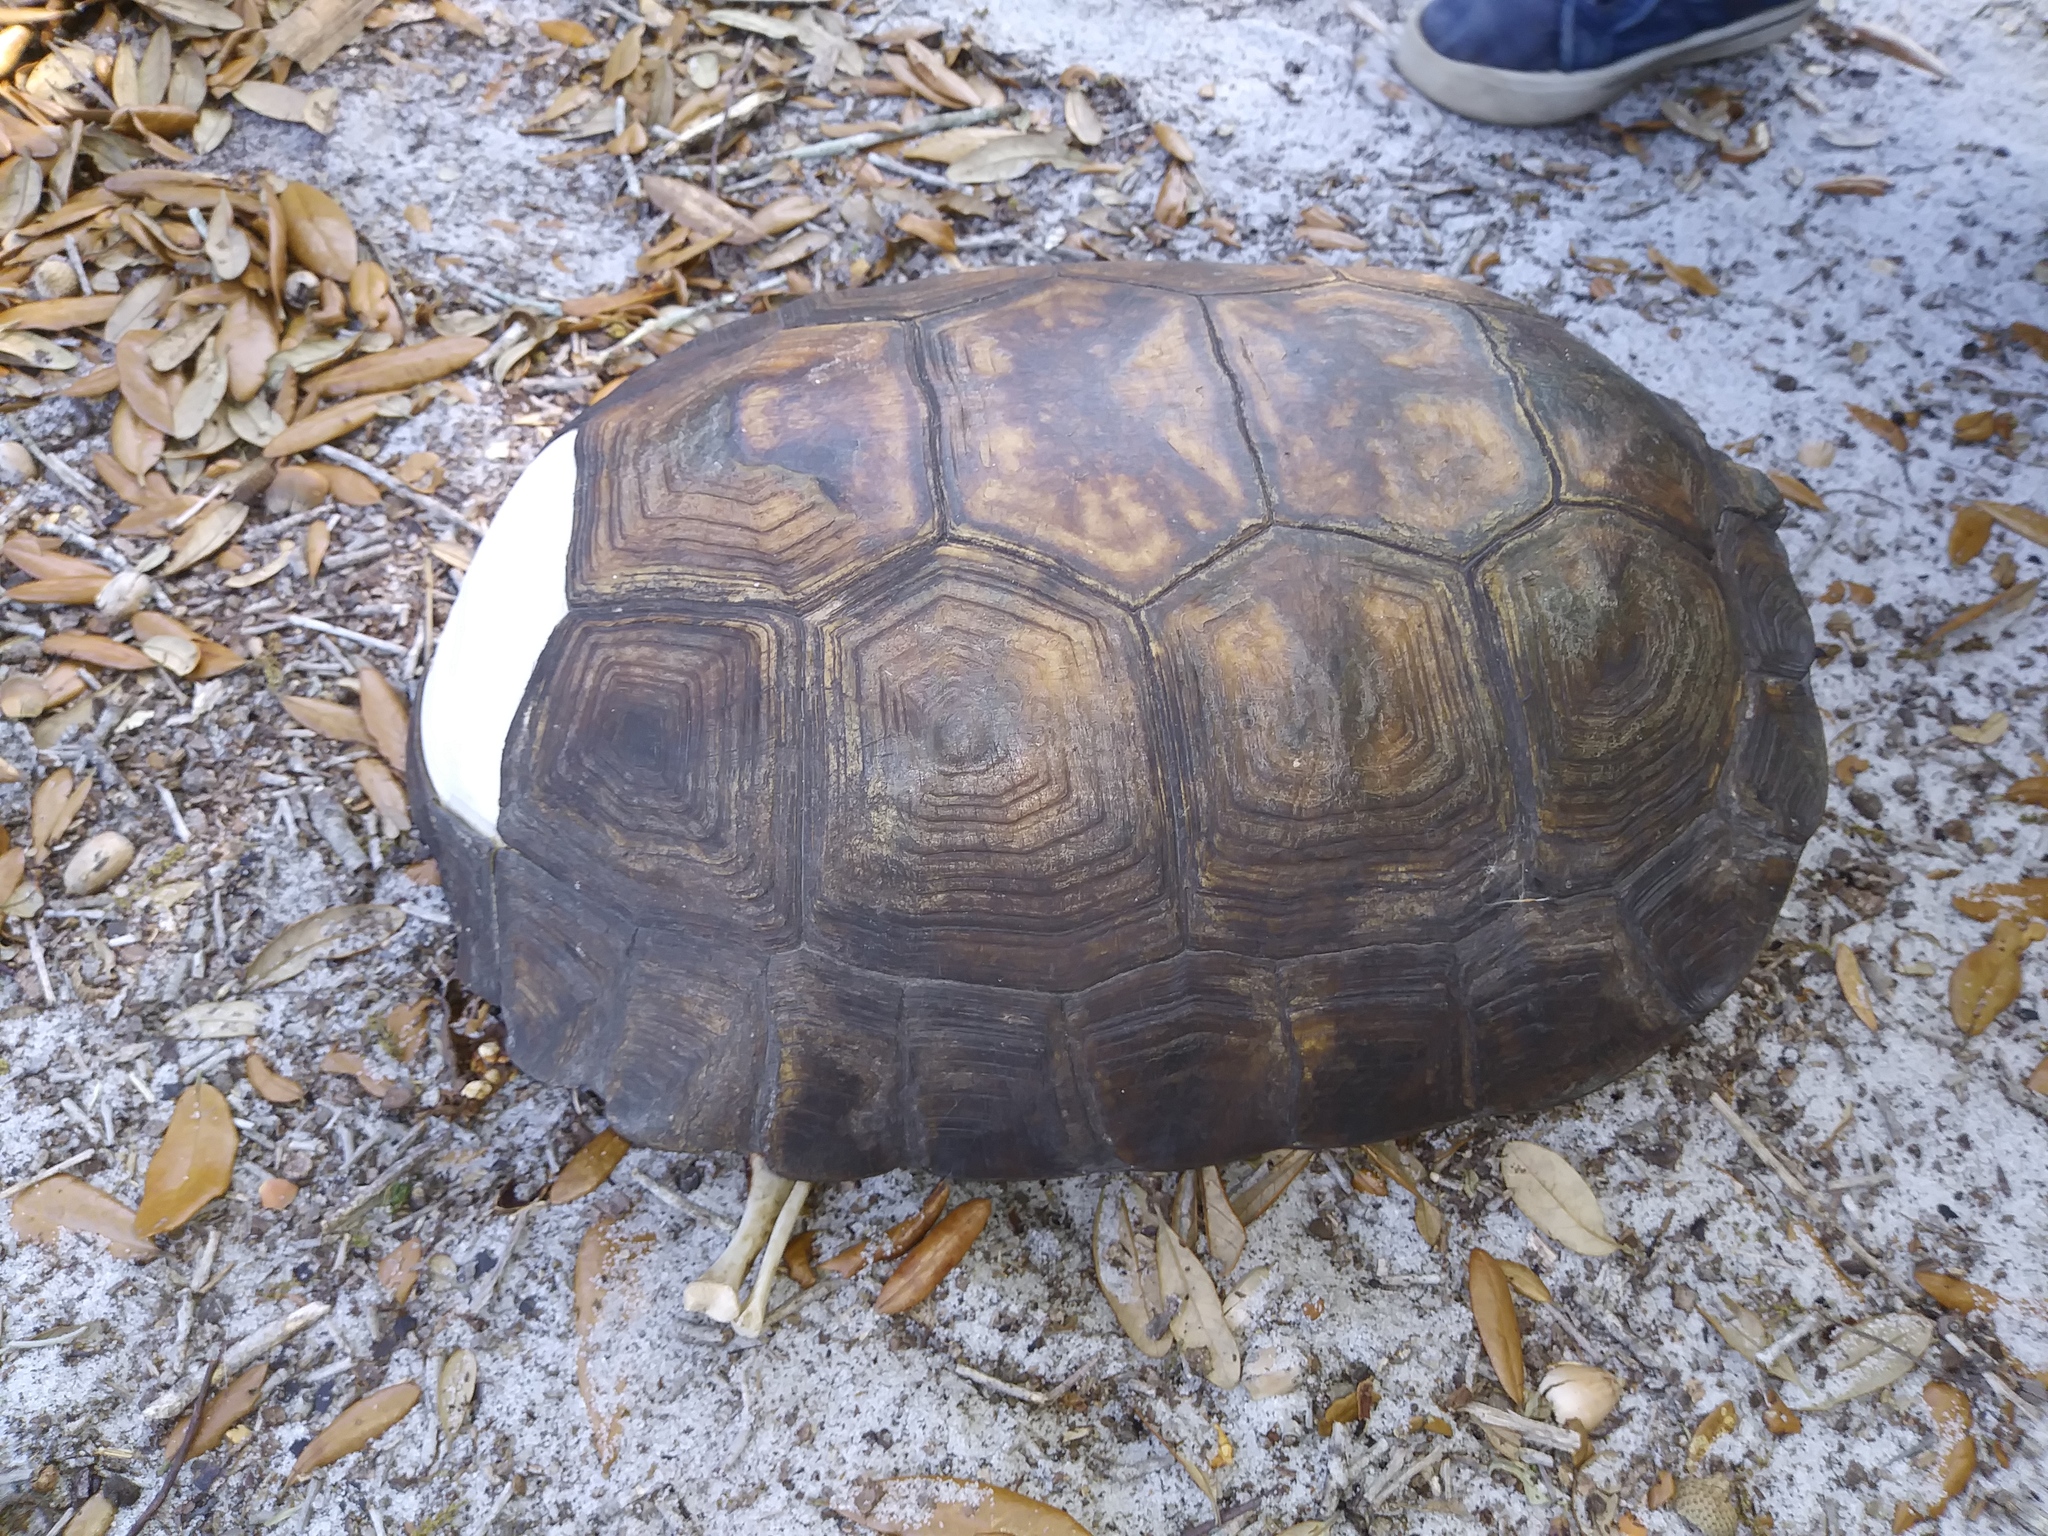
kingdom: Animalia
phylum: Chordata
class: Testudines
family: Testudinidae
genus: Gopherus
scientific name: Gopherus polyphemus
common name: Florida gopher tortoise
